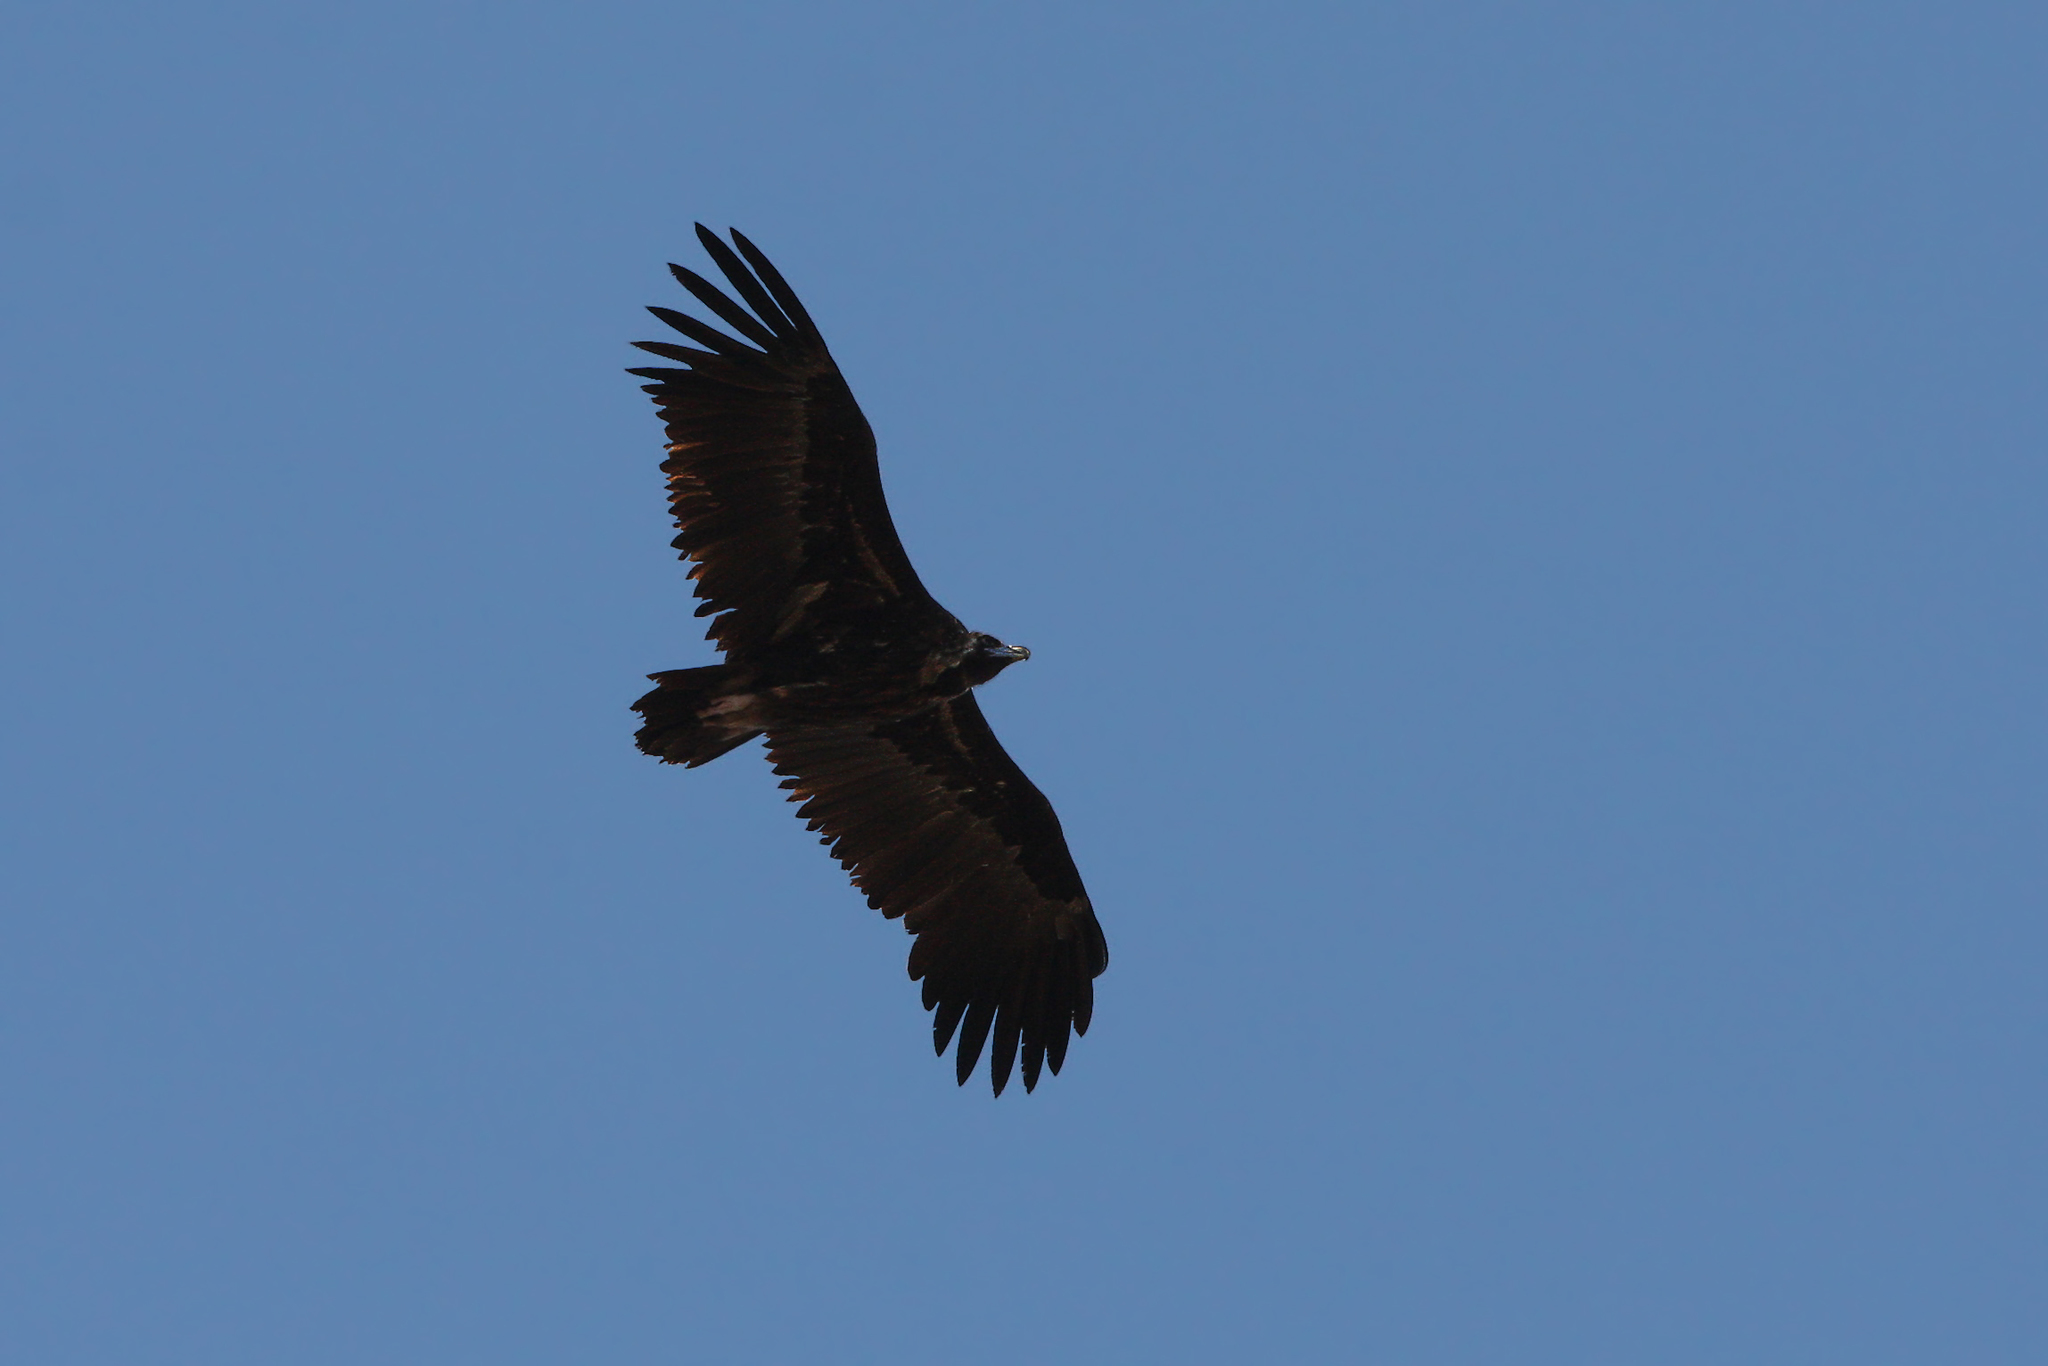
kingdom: Animalia
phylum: Chordata
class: Aves
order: Accipitriformes
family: Accipitridae
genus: Aegypius
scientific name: Aegypius monachus
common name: Cinereous vulture
